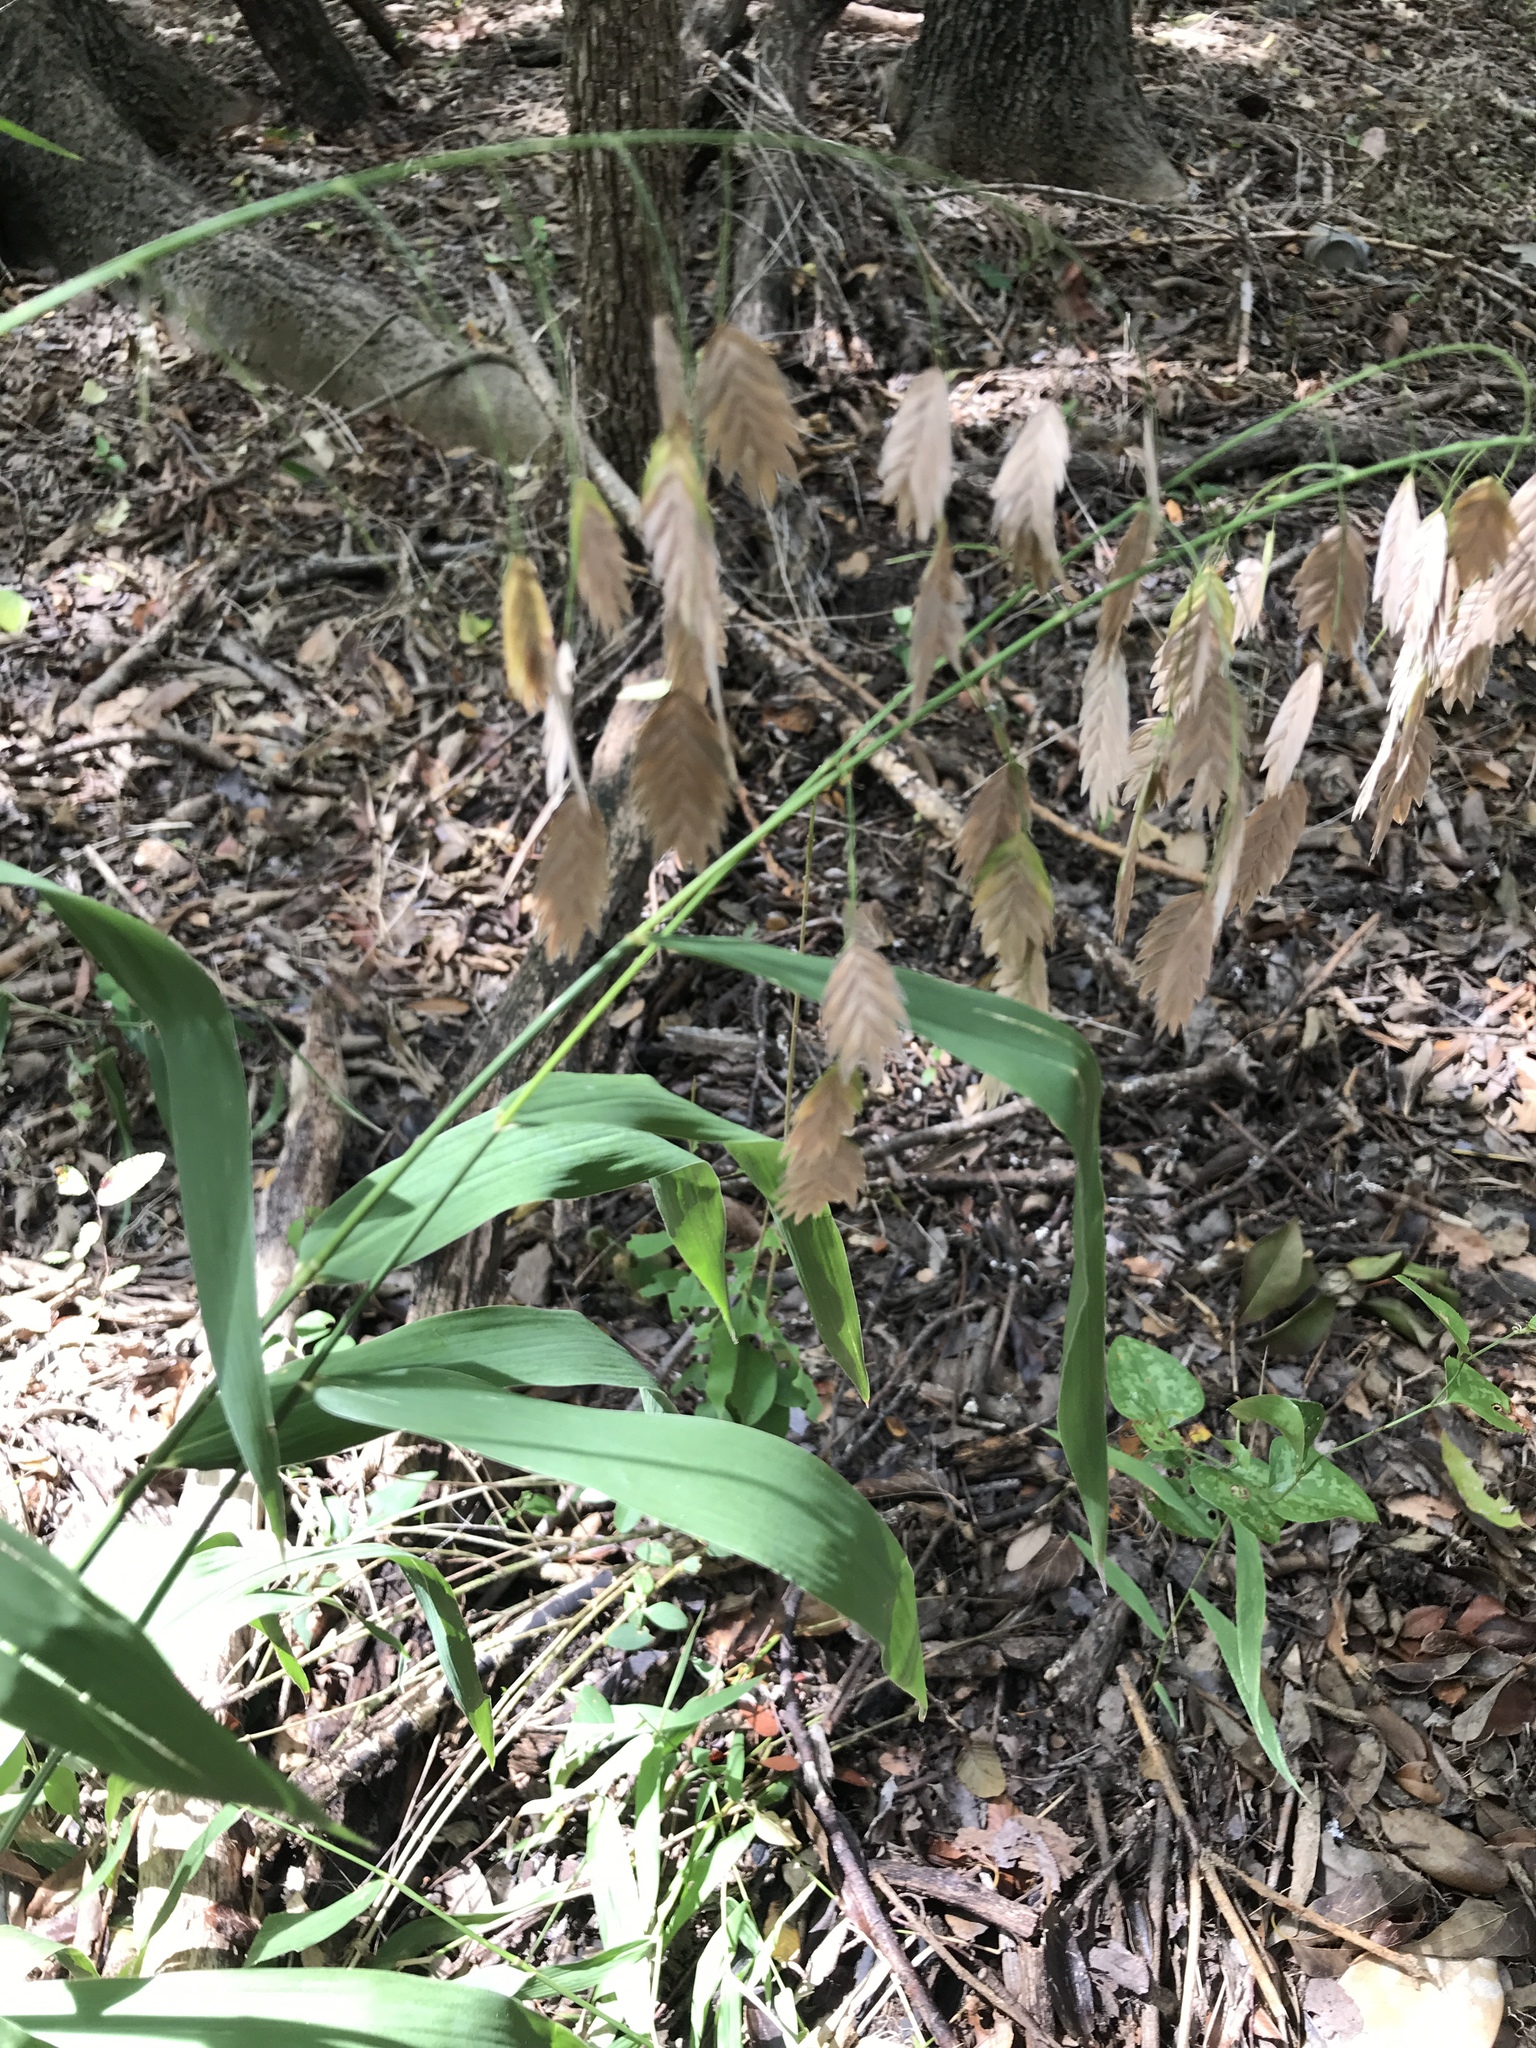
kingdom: Plantae
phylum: Tracheophyta
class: Liliopsida
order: Poales
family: Poaceae
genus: Chasmanthium
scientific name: Chasmanthium latifolium
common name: Broad-leaved chasmanthium
